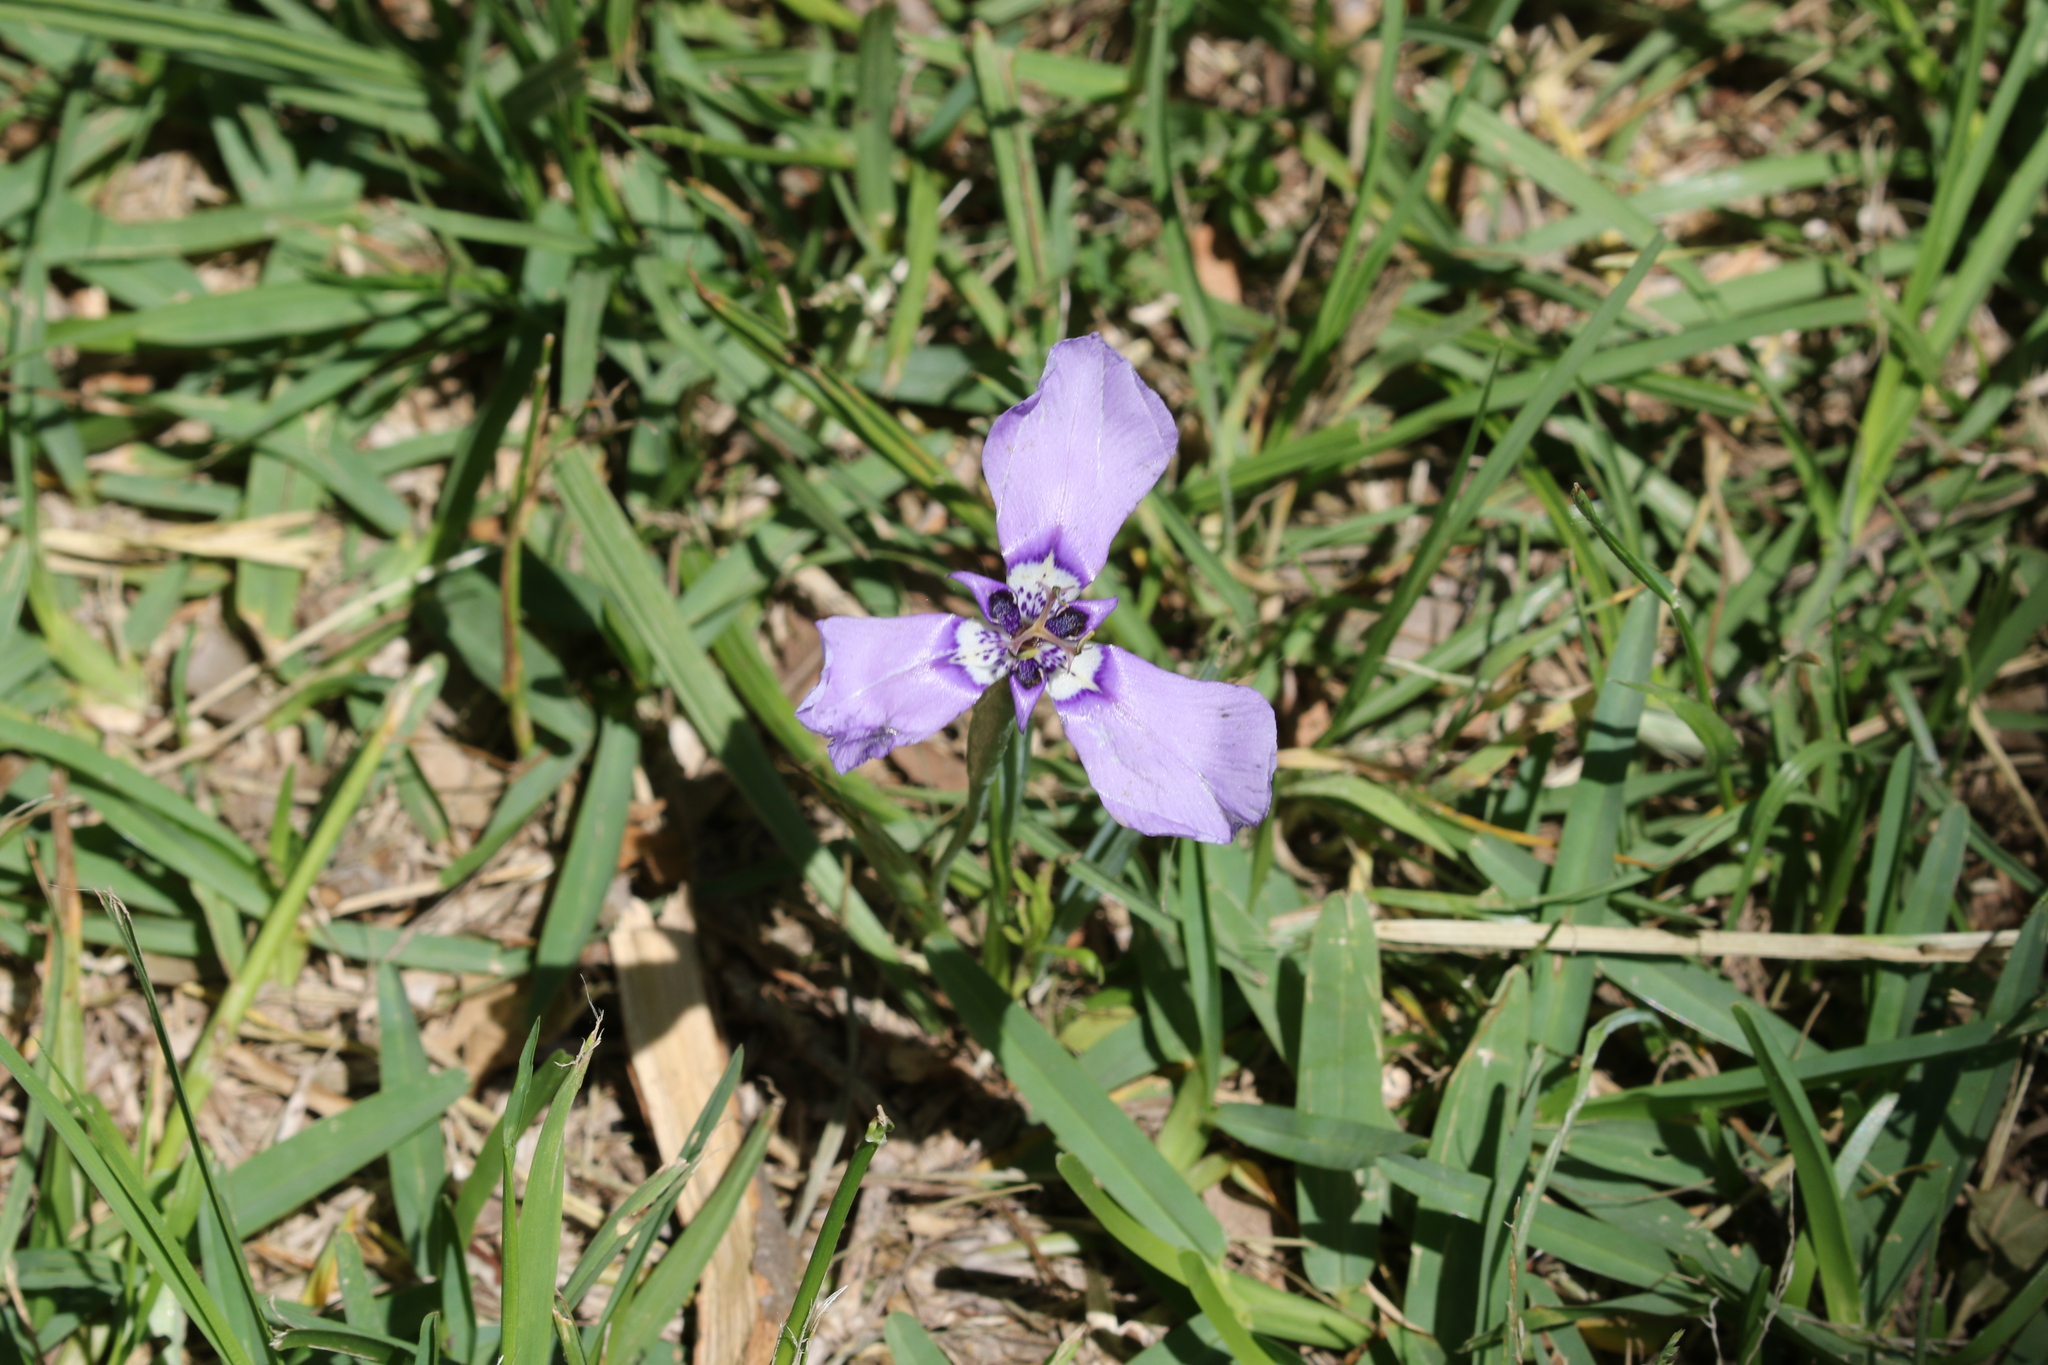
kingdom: Plantae
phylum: Tracheophyta
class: Liliopsida
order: Asparagales
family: Iridaceae
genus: Herbertia
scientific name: Herbertia lahue
